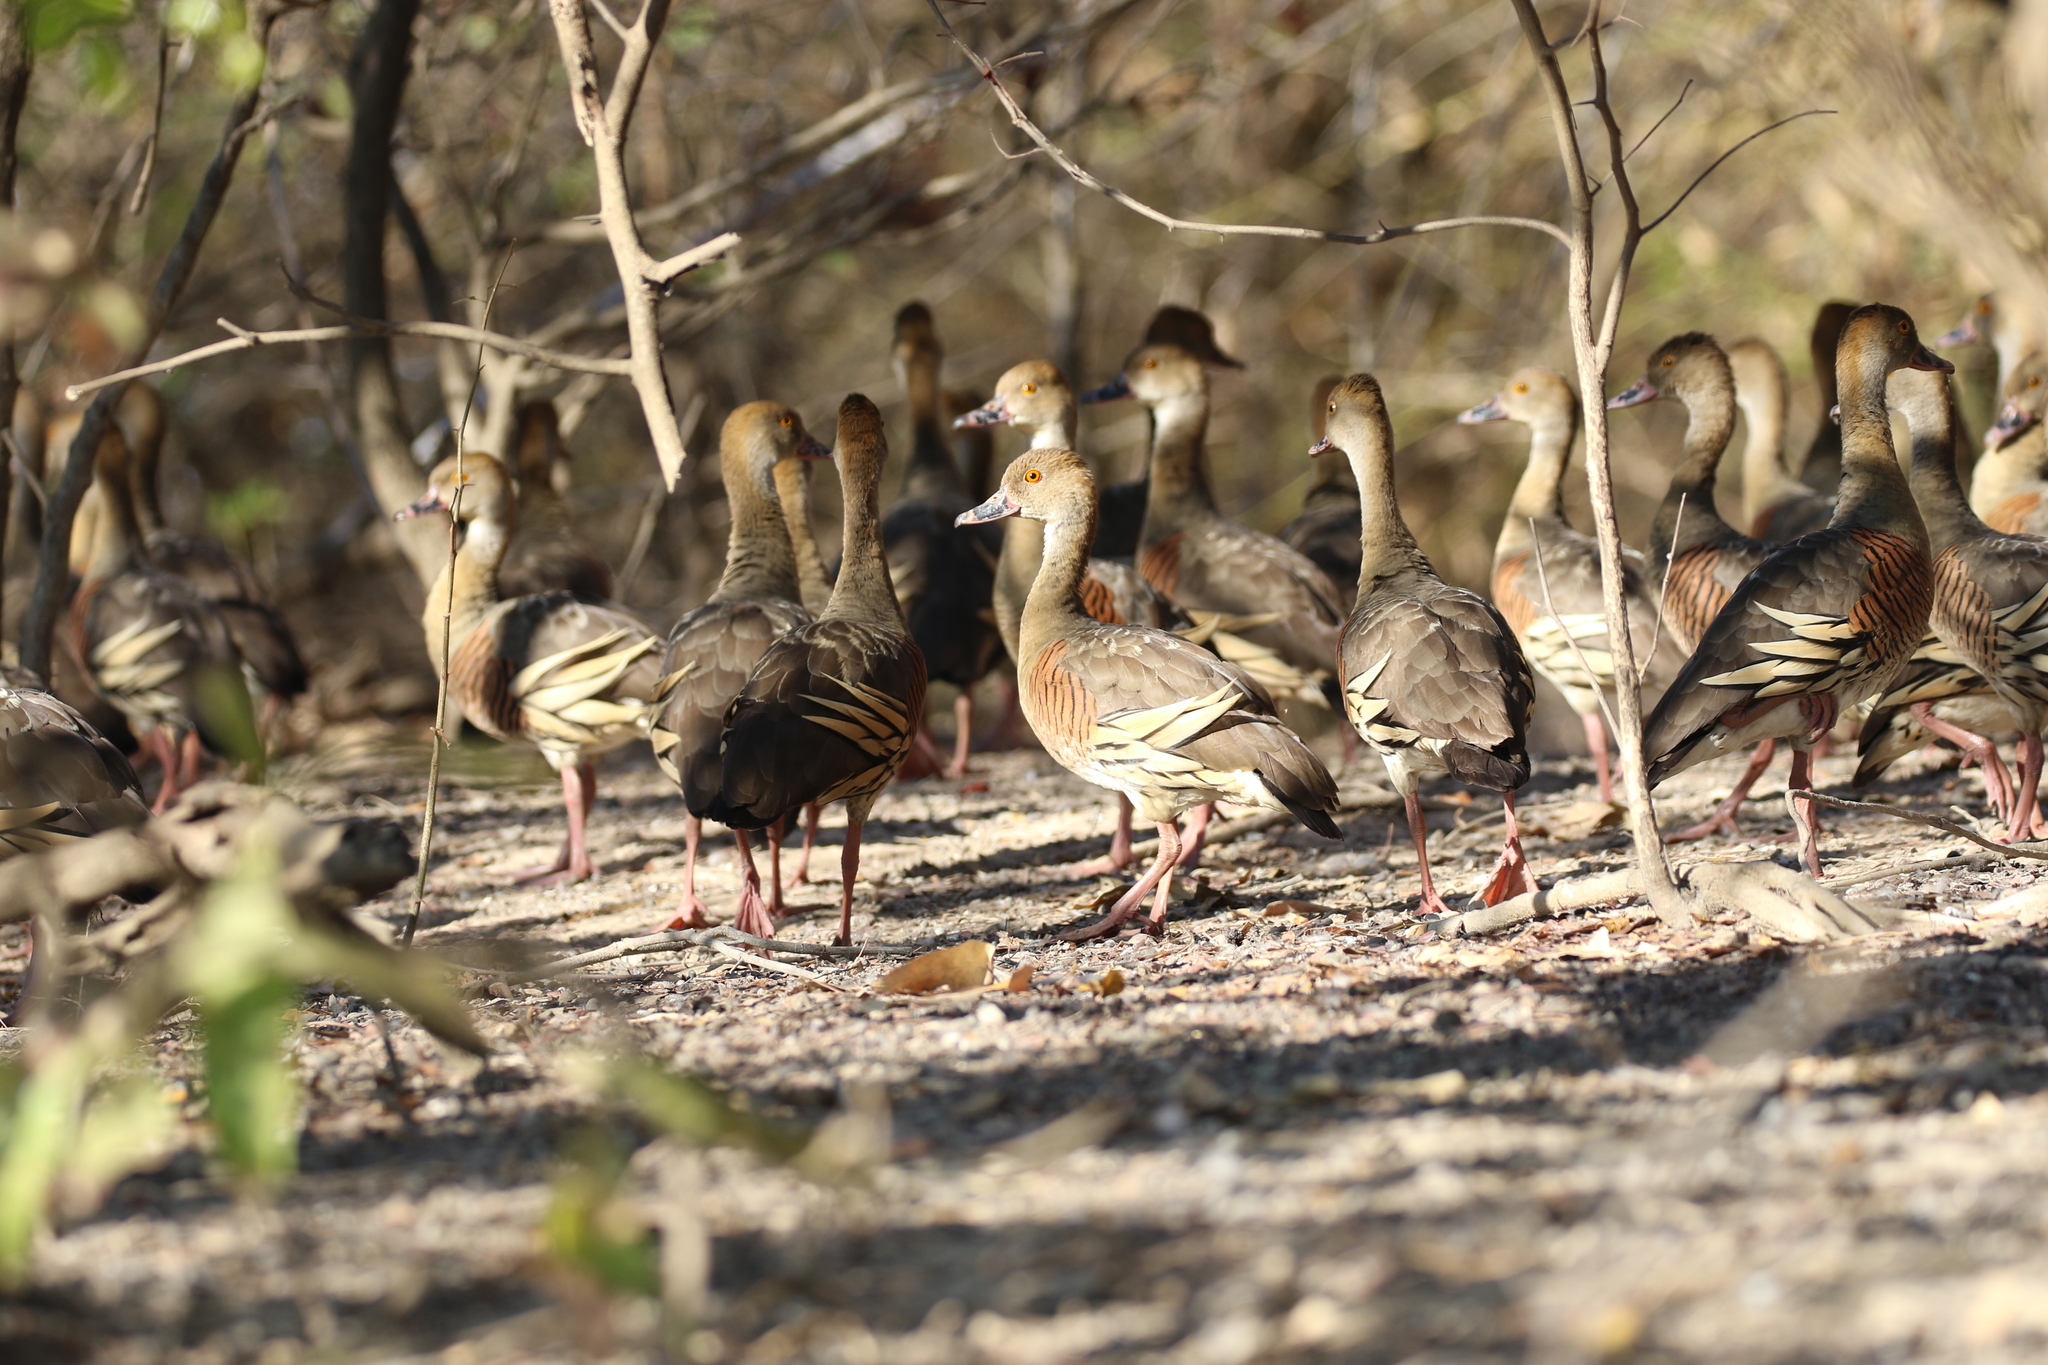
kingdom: Animalia
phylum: Chordata
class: Aves
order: Anseriformes
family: Anatidae
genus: Dendrocygna
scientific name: Dendrocygna eytoni
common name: Plumed whistling-duck
